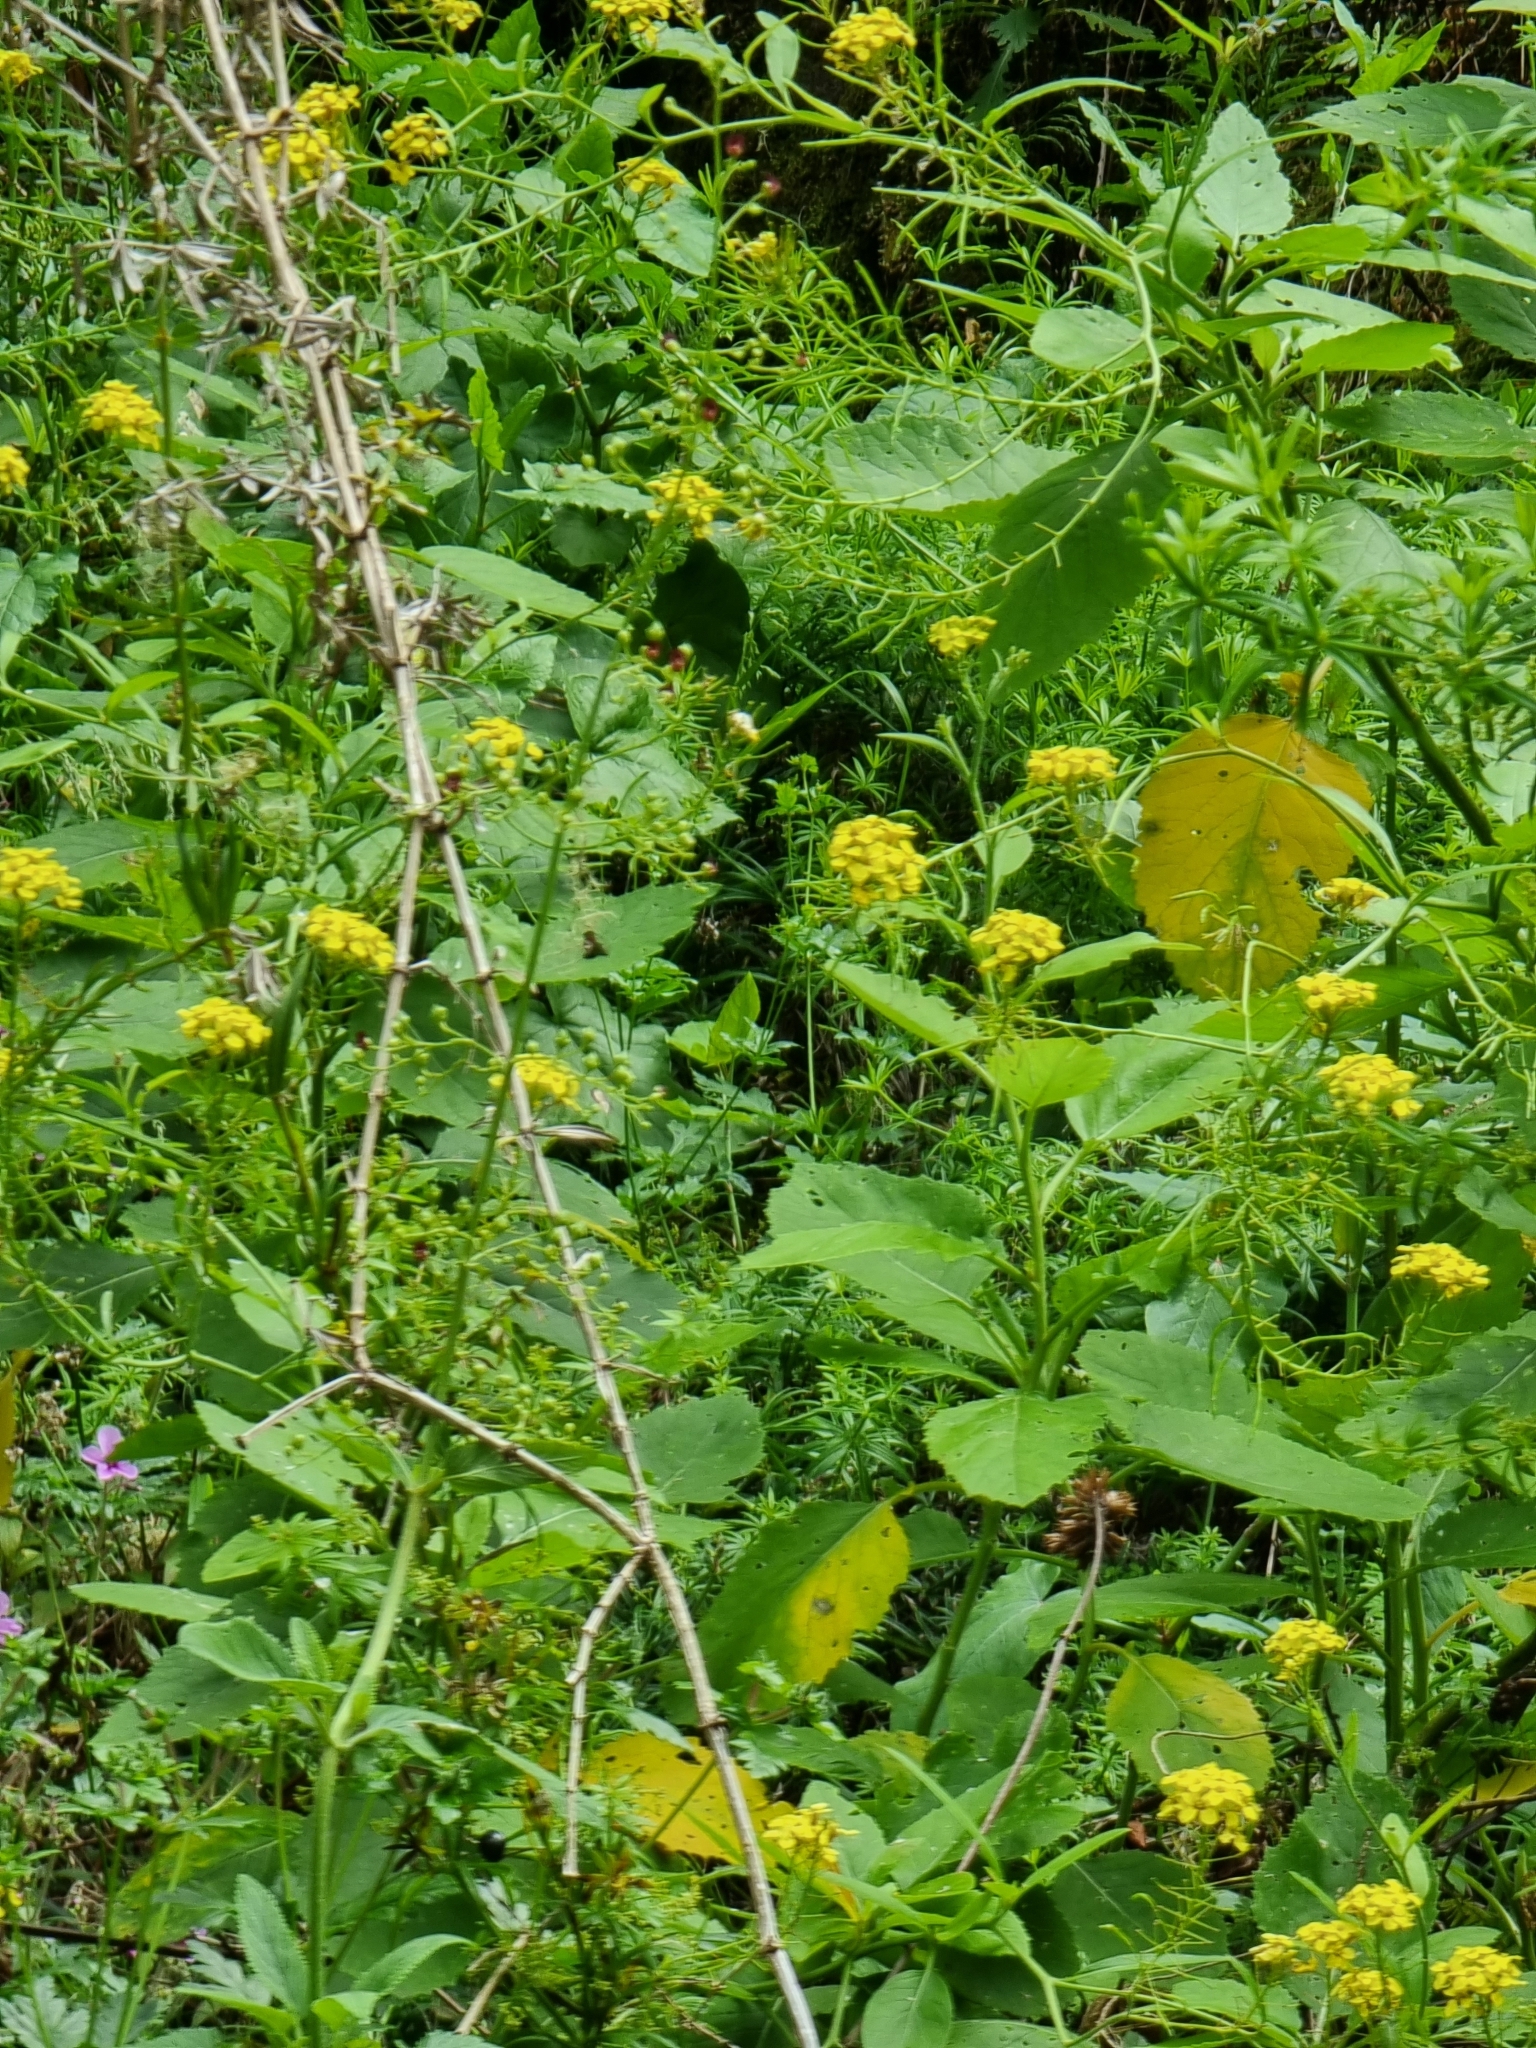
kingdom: Plantae
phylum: Tracheophyta
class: Magnoliopsida
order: Brassicales
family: Brassicaceae
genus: Sinapidendron
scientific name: Sinapidendron rupestre
